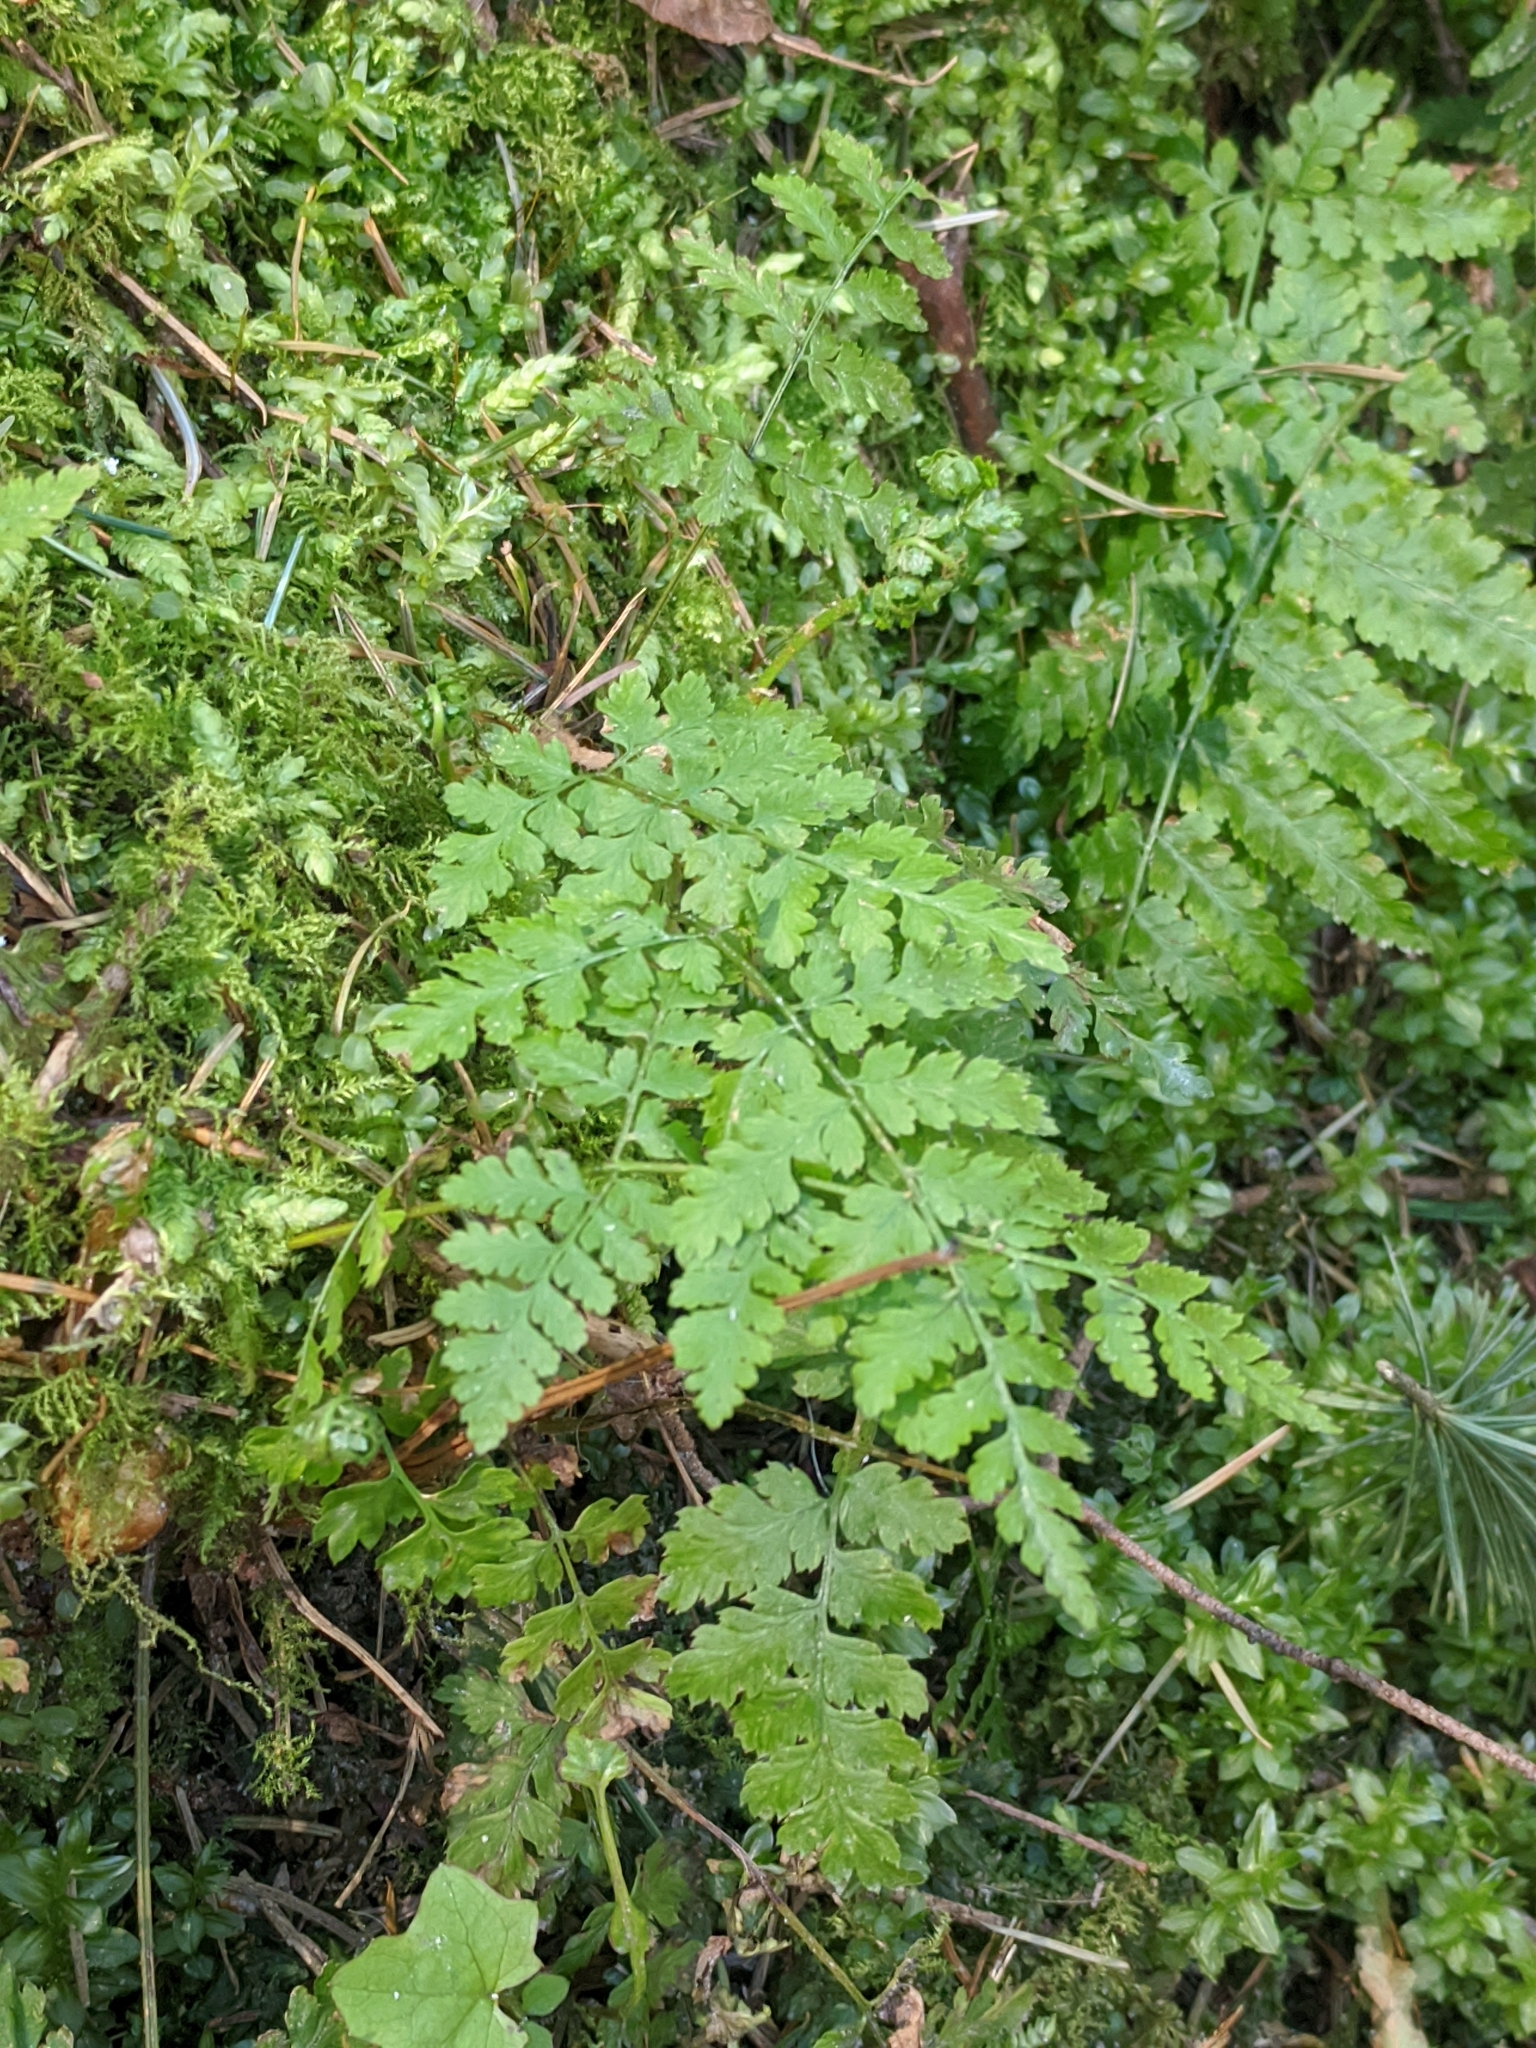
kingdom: Plantae
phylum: Tracheophyta
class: Polypodiopsida
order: Polypodiales
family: Dryopteridaceae
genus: Dryopteris
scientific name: Dryopteris expansa
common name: Northern buckler fern
